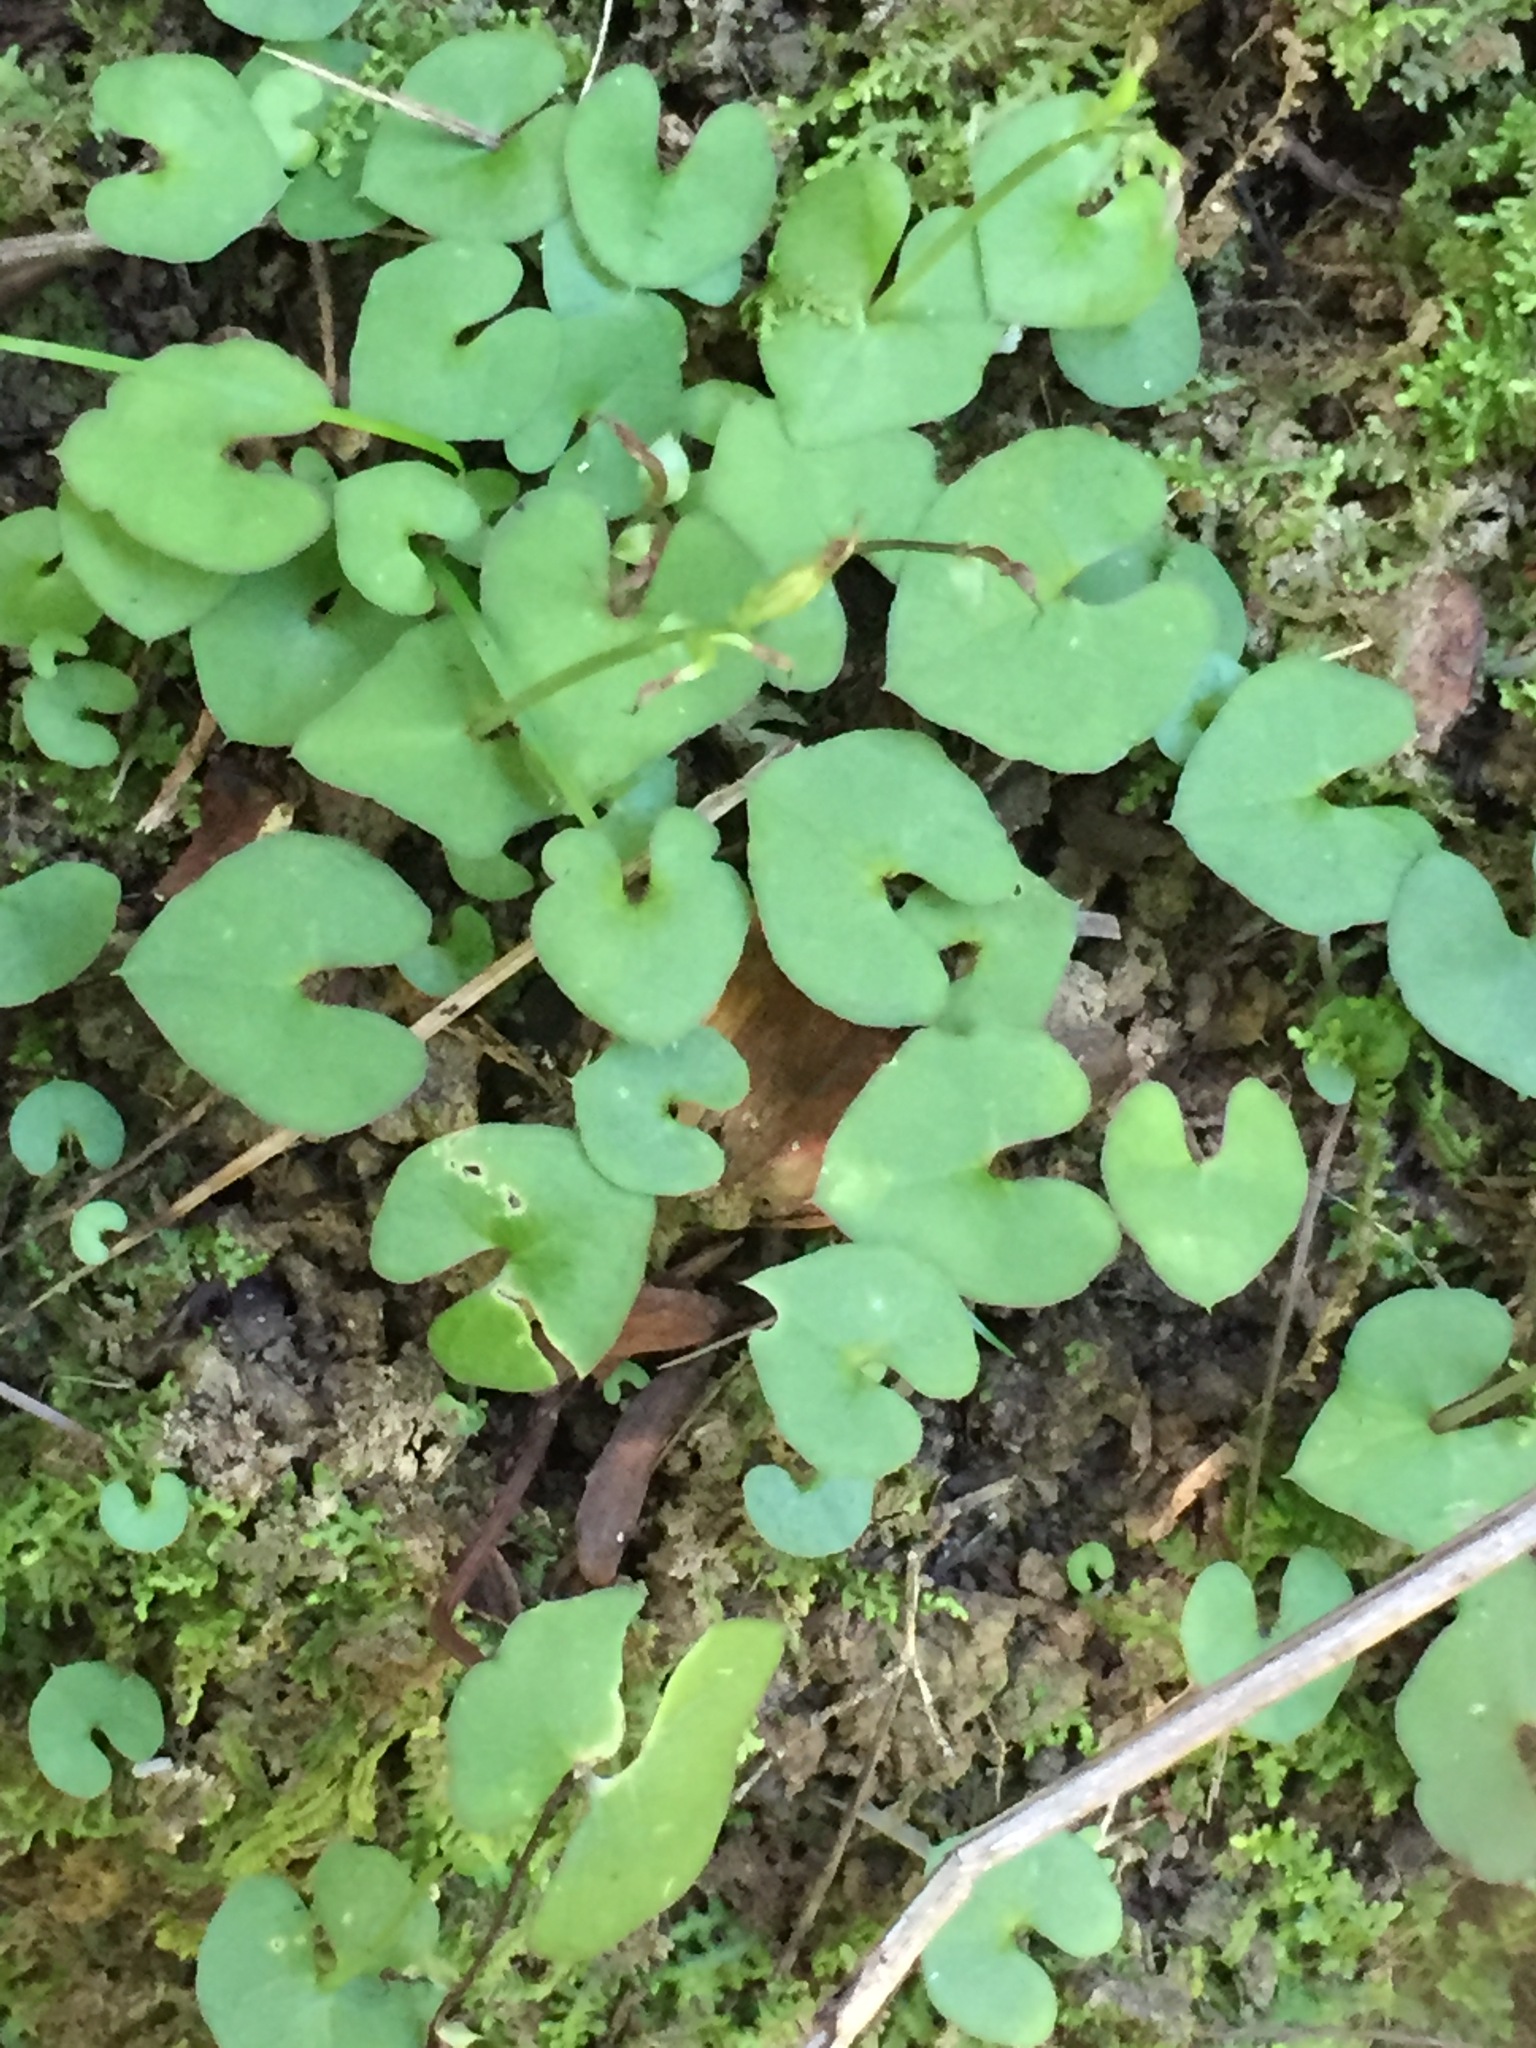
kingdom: Plantae
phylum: Tracheophyta
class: Liliopsida
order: Asparagales
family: Orchidaceae
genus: Acianthus
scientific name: Acianthus sinclairii
